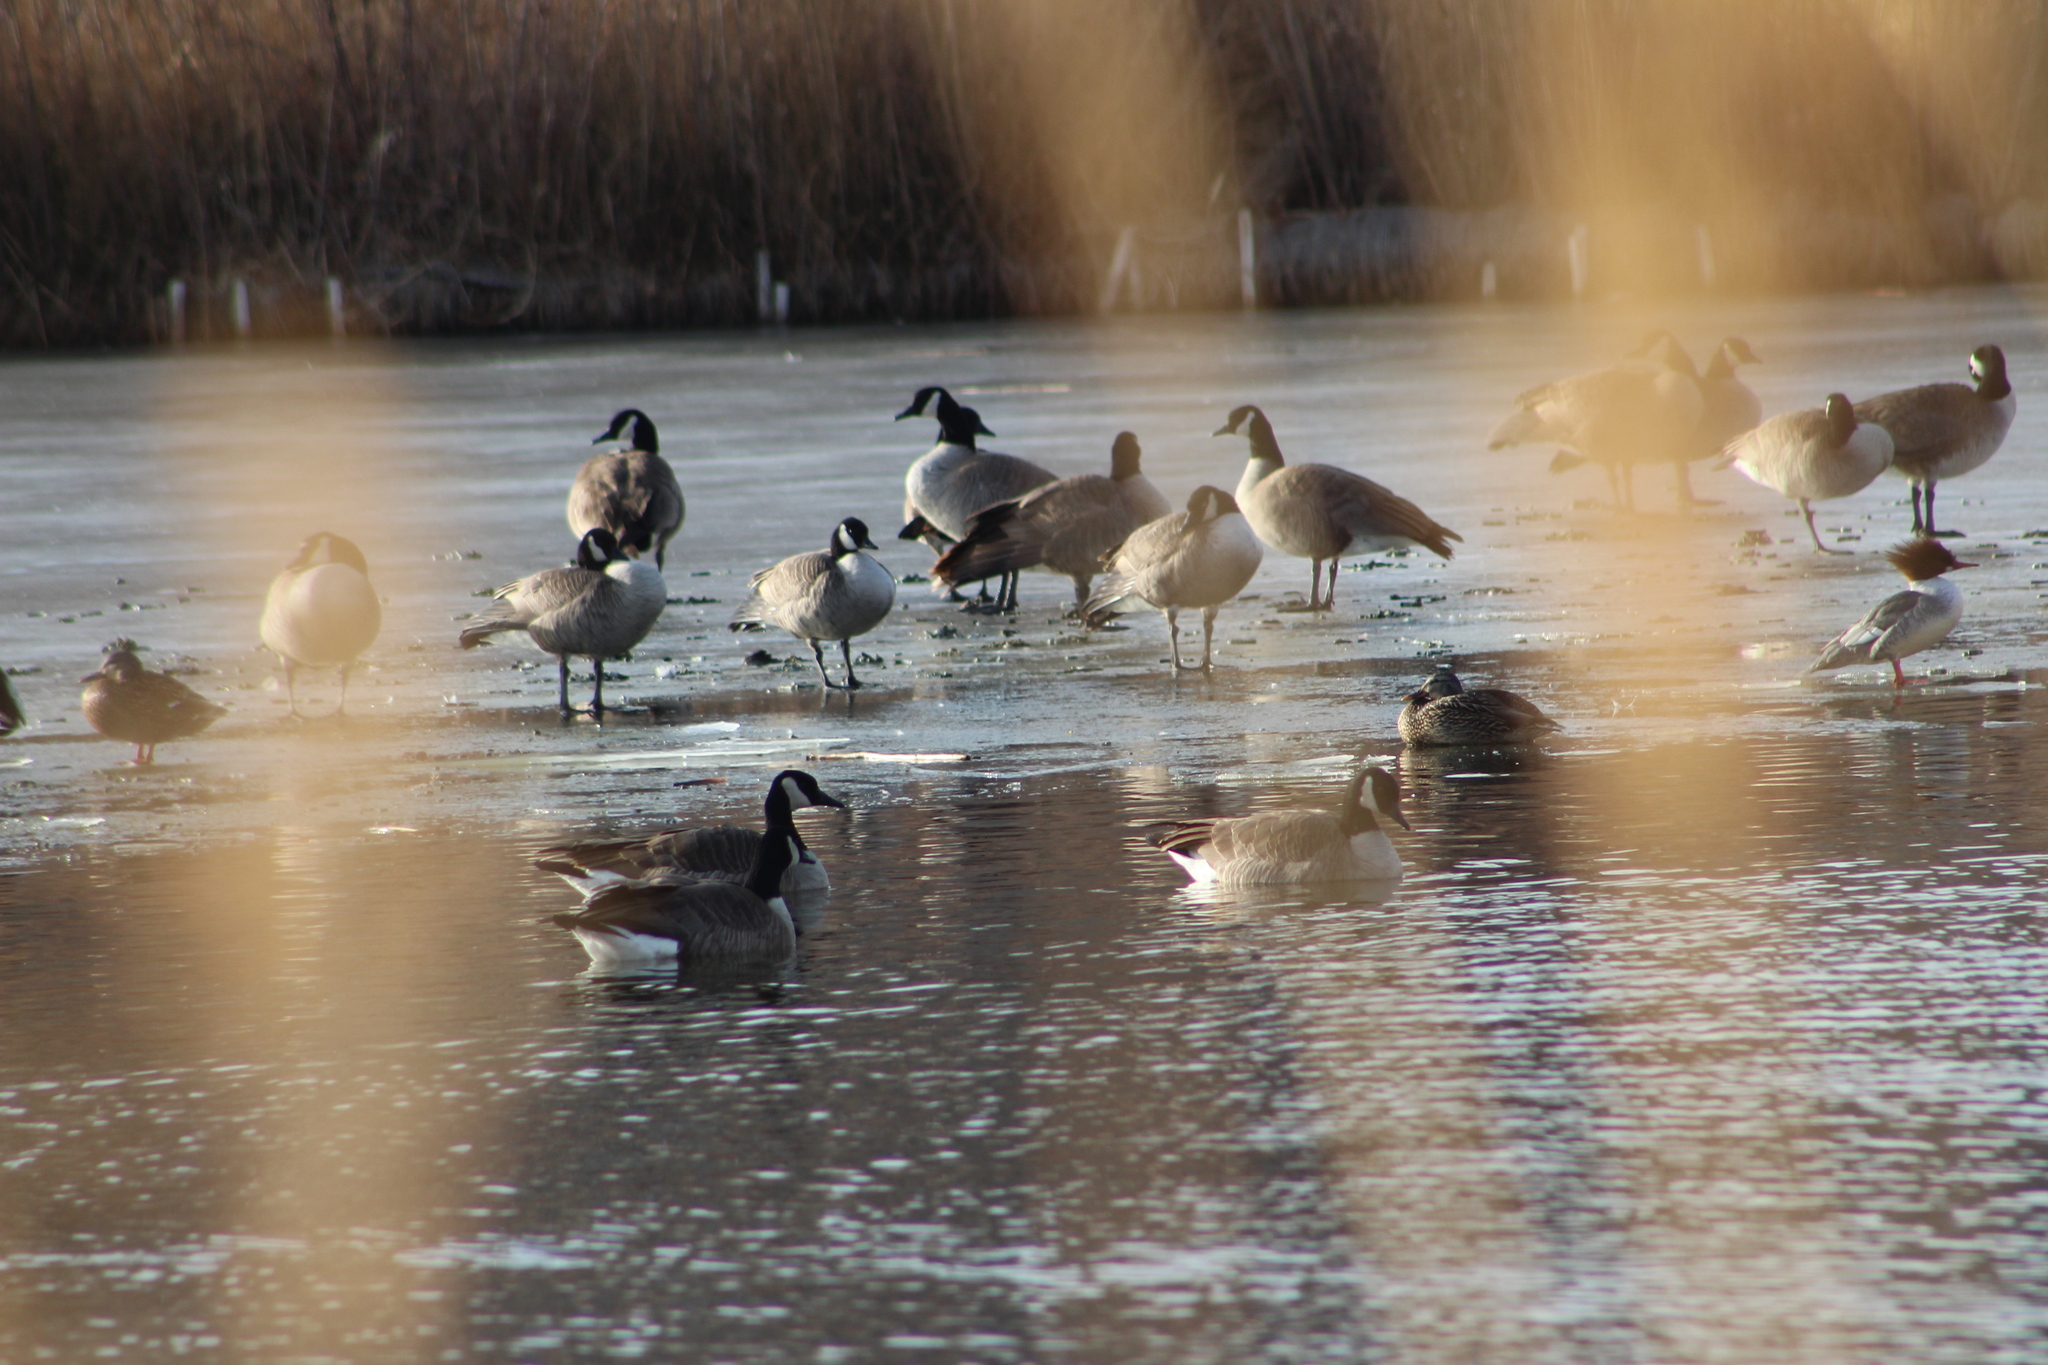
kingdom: Animalia
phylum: Chordata
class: Aves
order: Anseriformes
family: Anatidae
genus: Mergus
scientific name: Mergus merganser
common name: Common merganser
